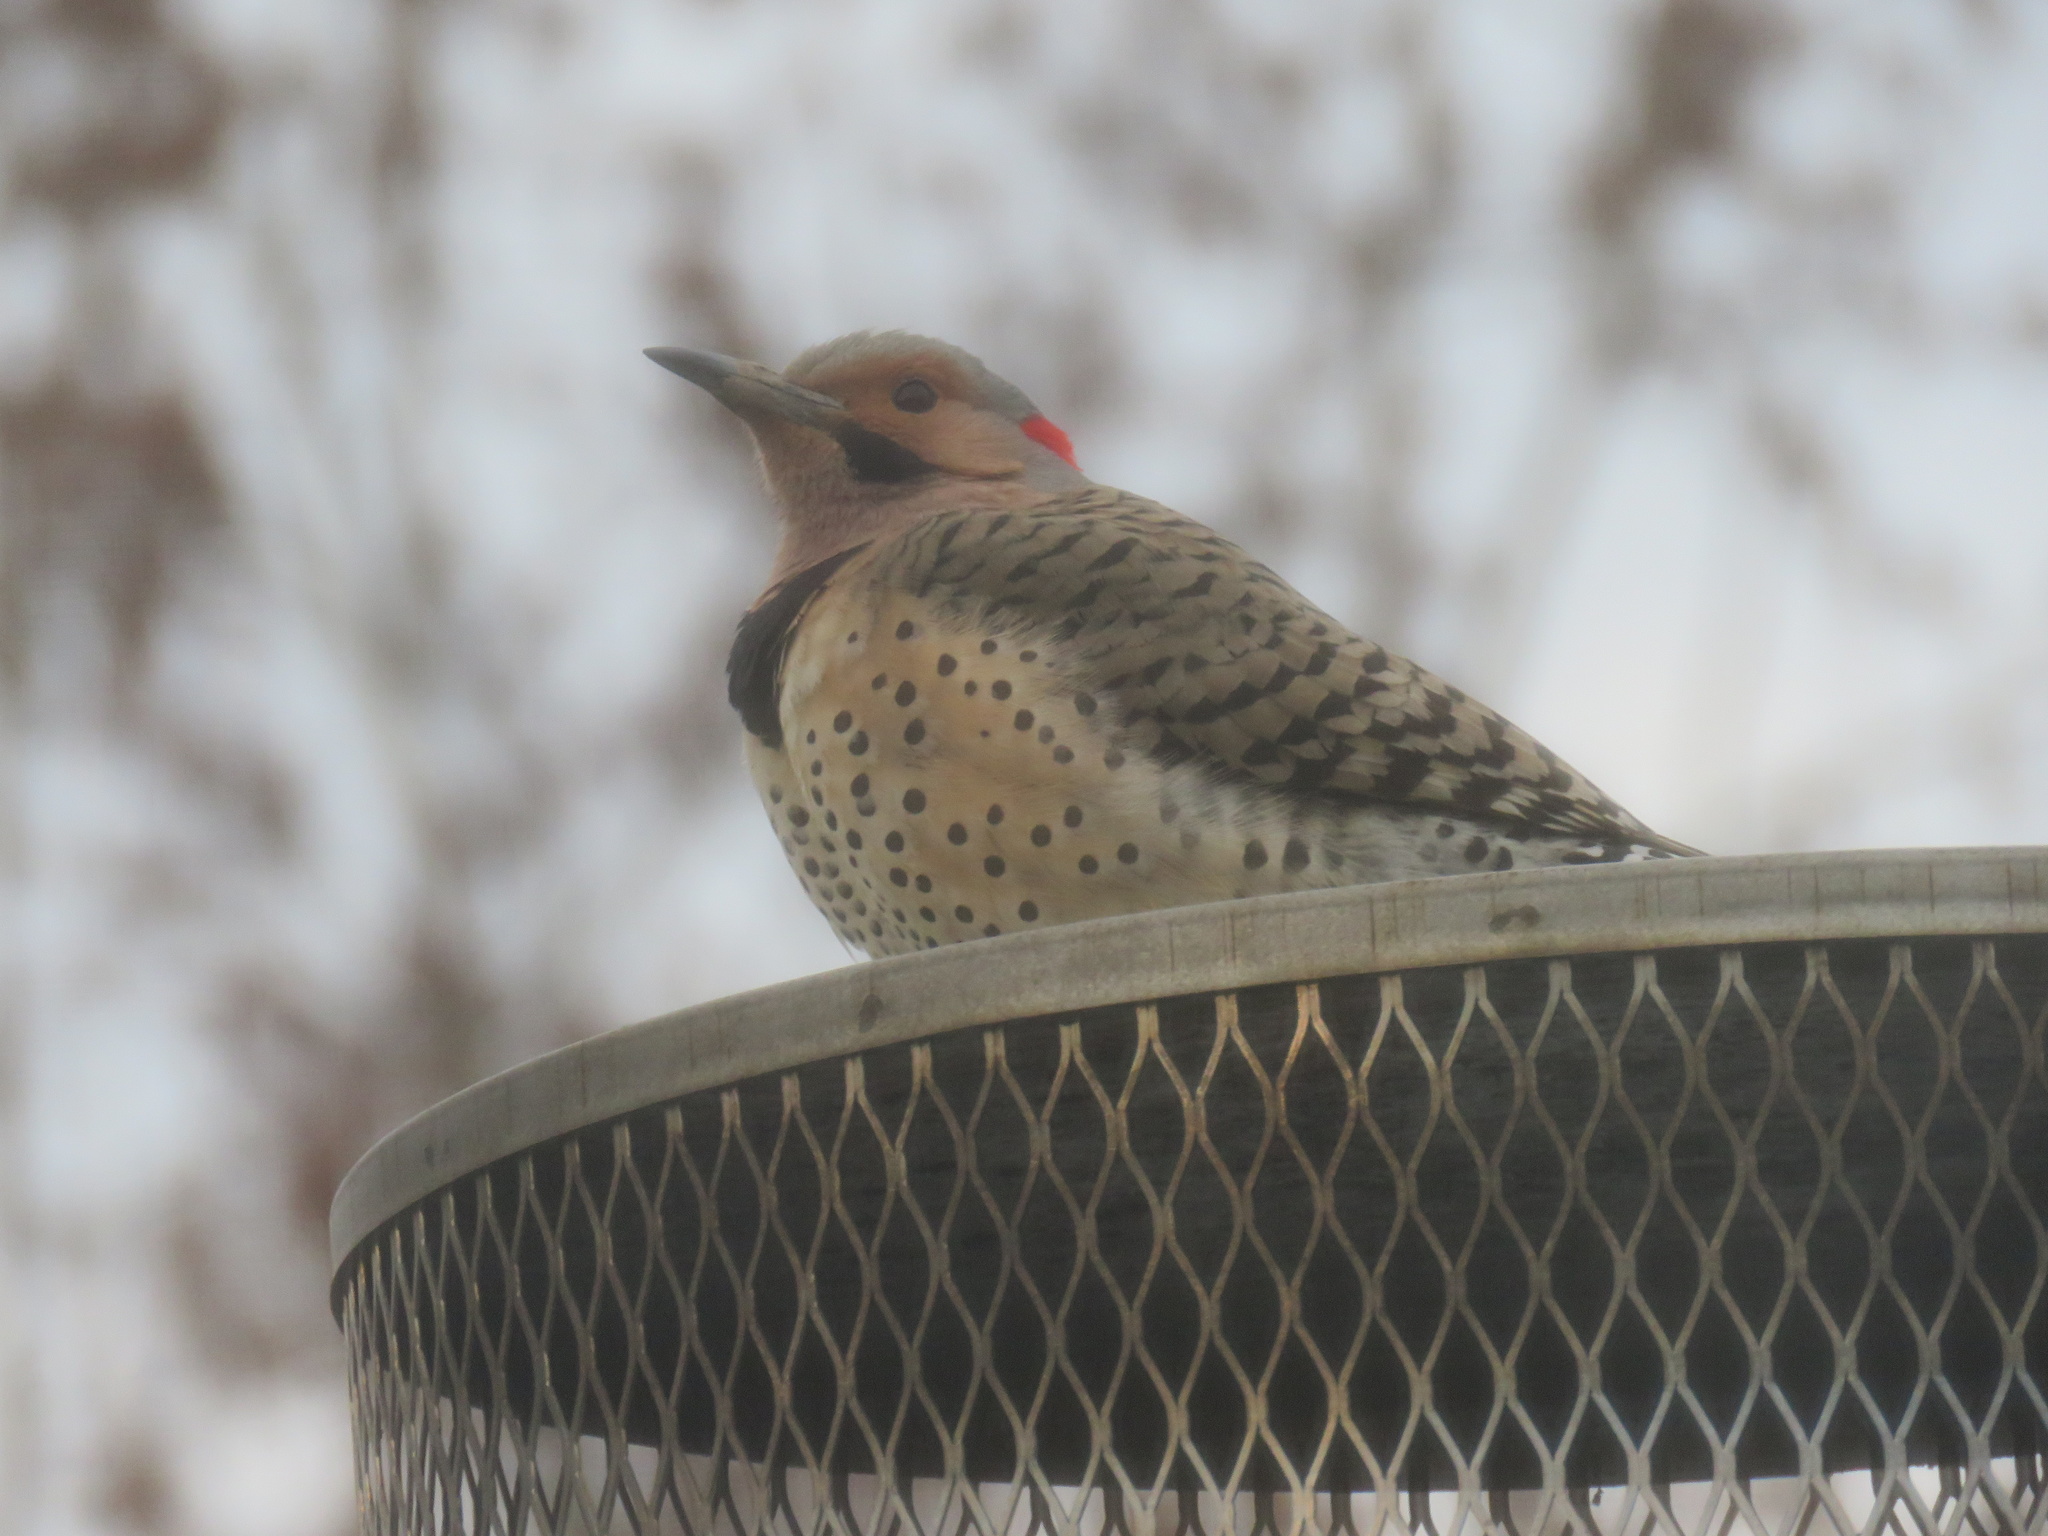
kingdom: Animalia
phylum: Chordata
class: Aves
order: Piciformes
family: Picidae
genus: Colaptes
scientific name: Colaptes auratus
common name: Northern flicker
